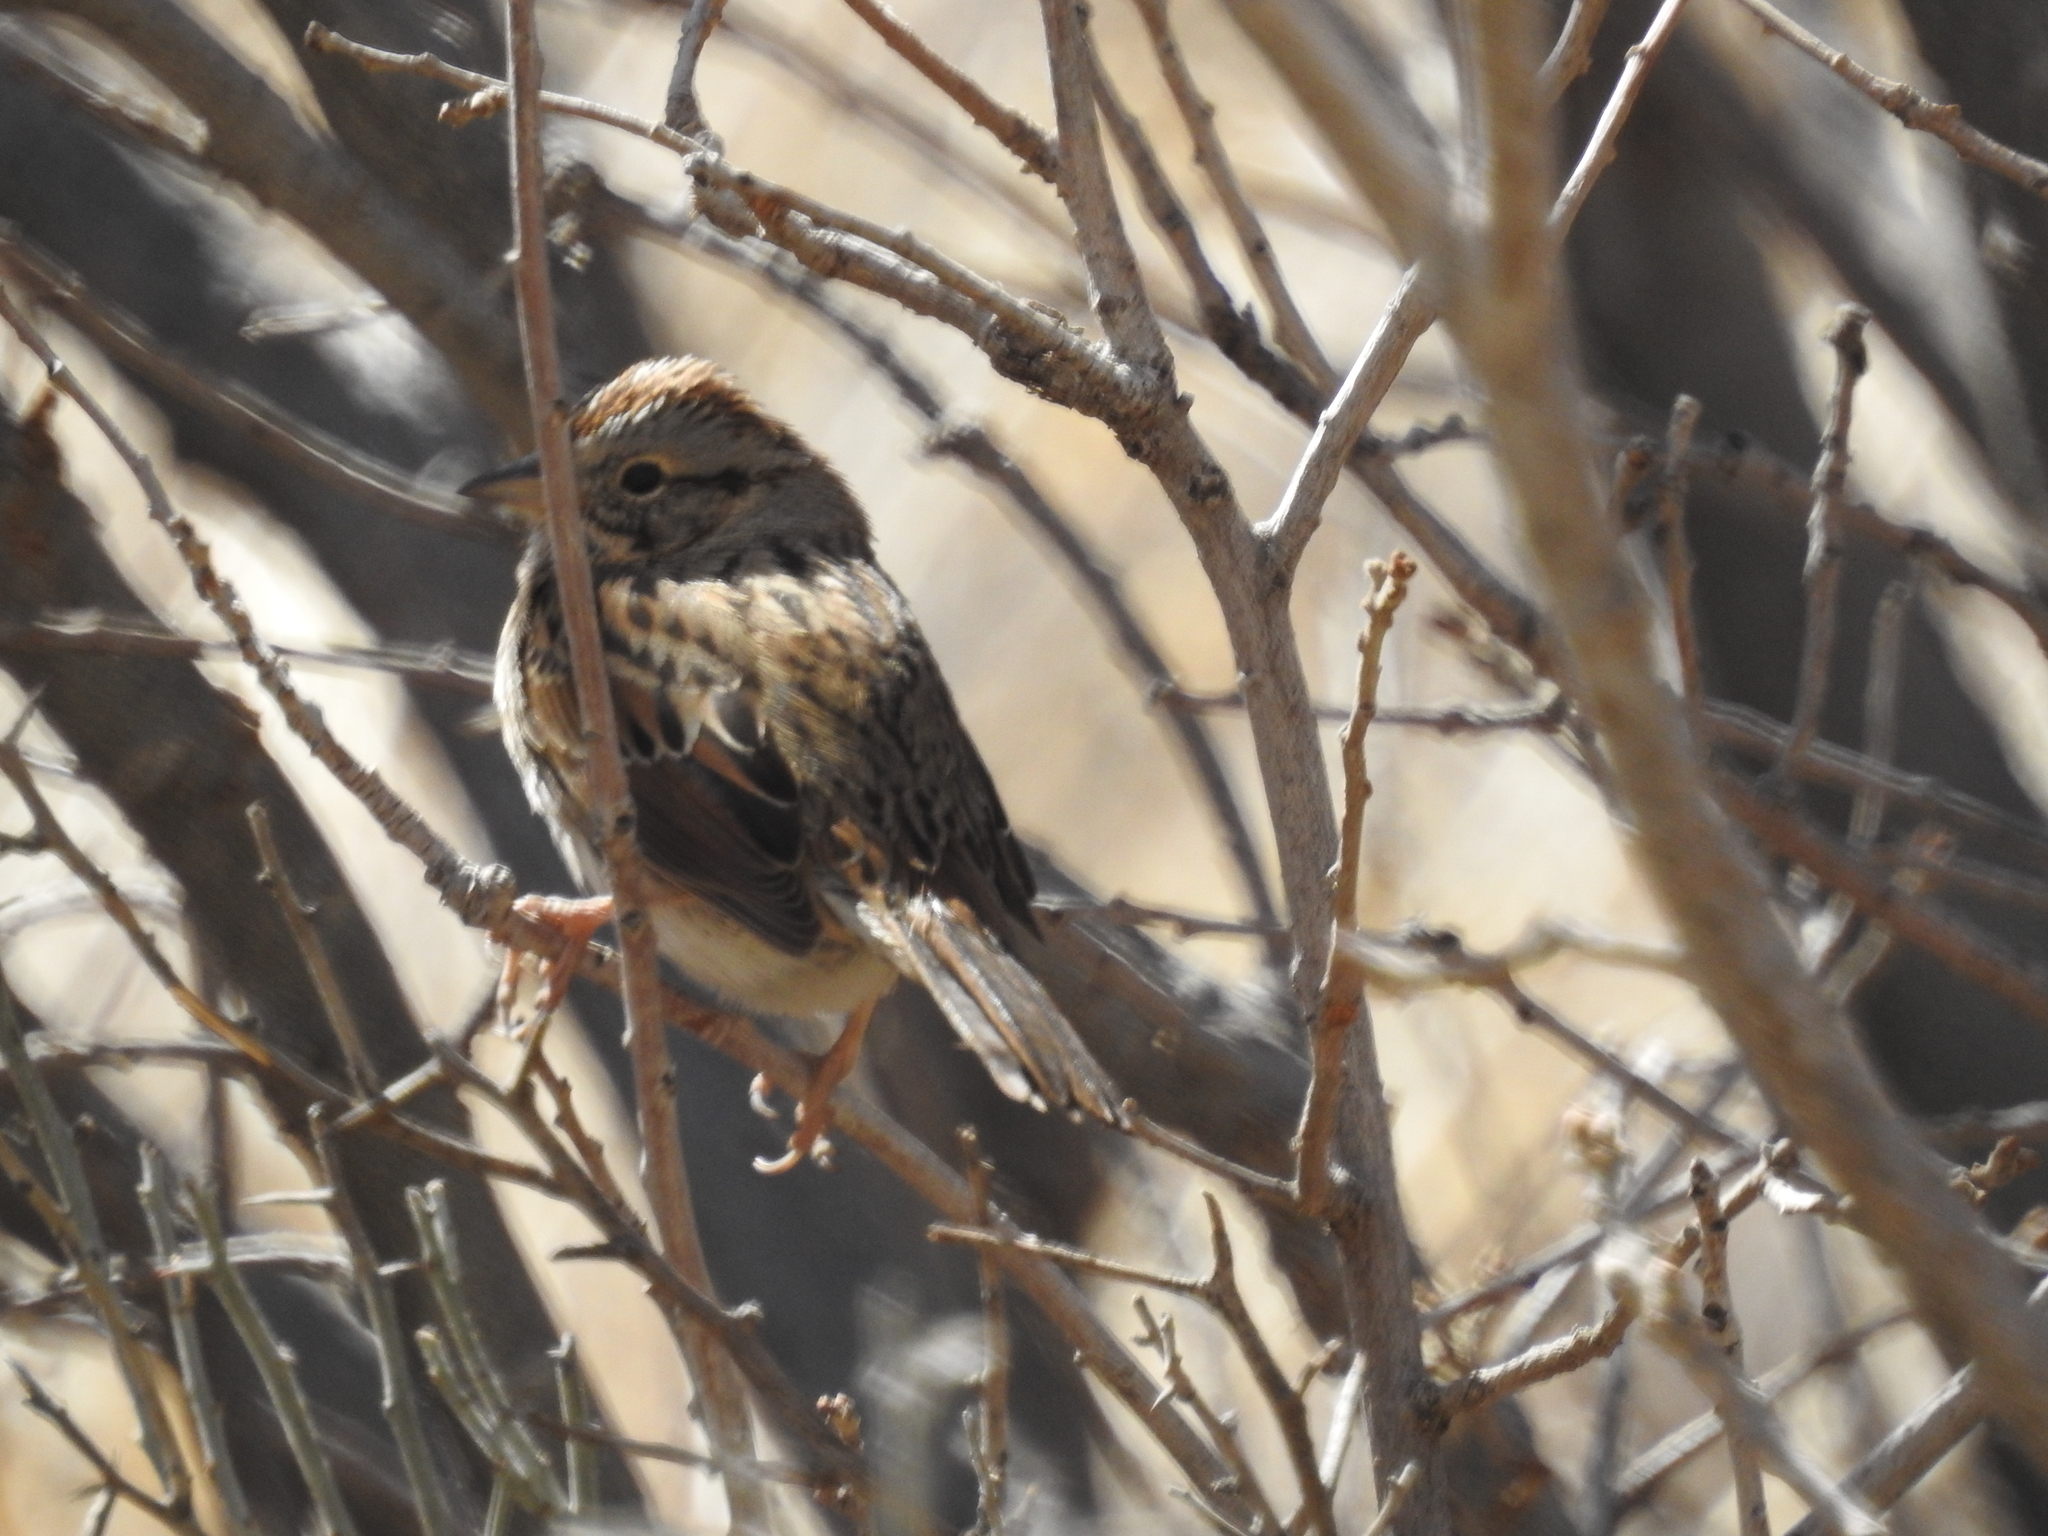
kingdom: Animalia
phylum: Chordata
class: Aves
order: Passeriformes
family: Passerellidae
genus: Melospiza
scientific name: Melospiza lincolnii
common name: Lincoln's sparrow
